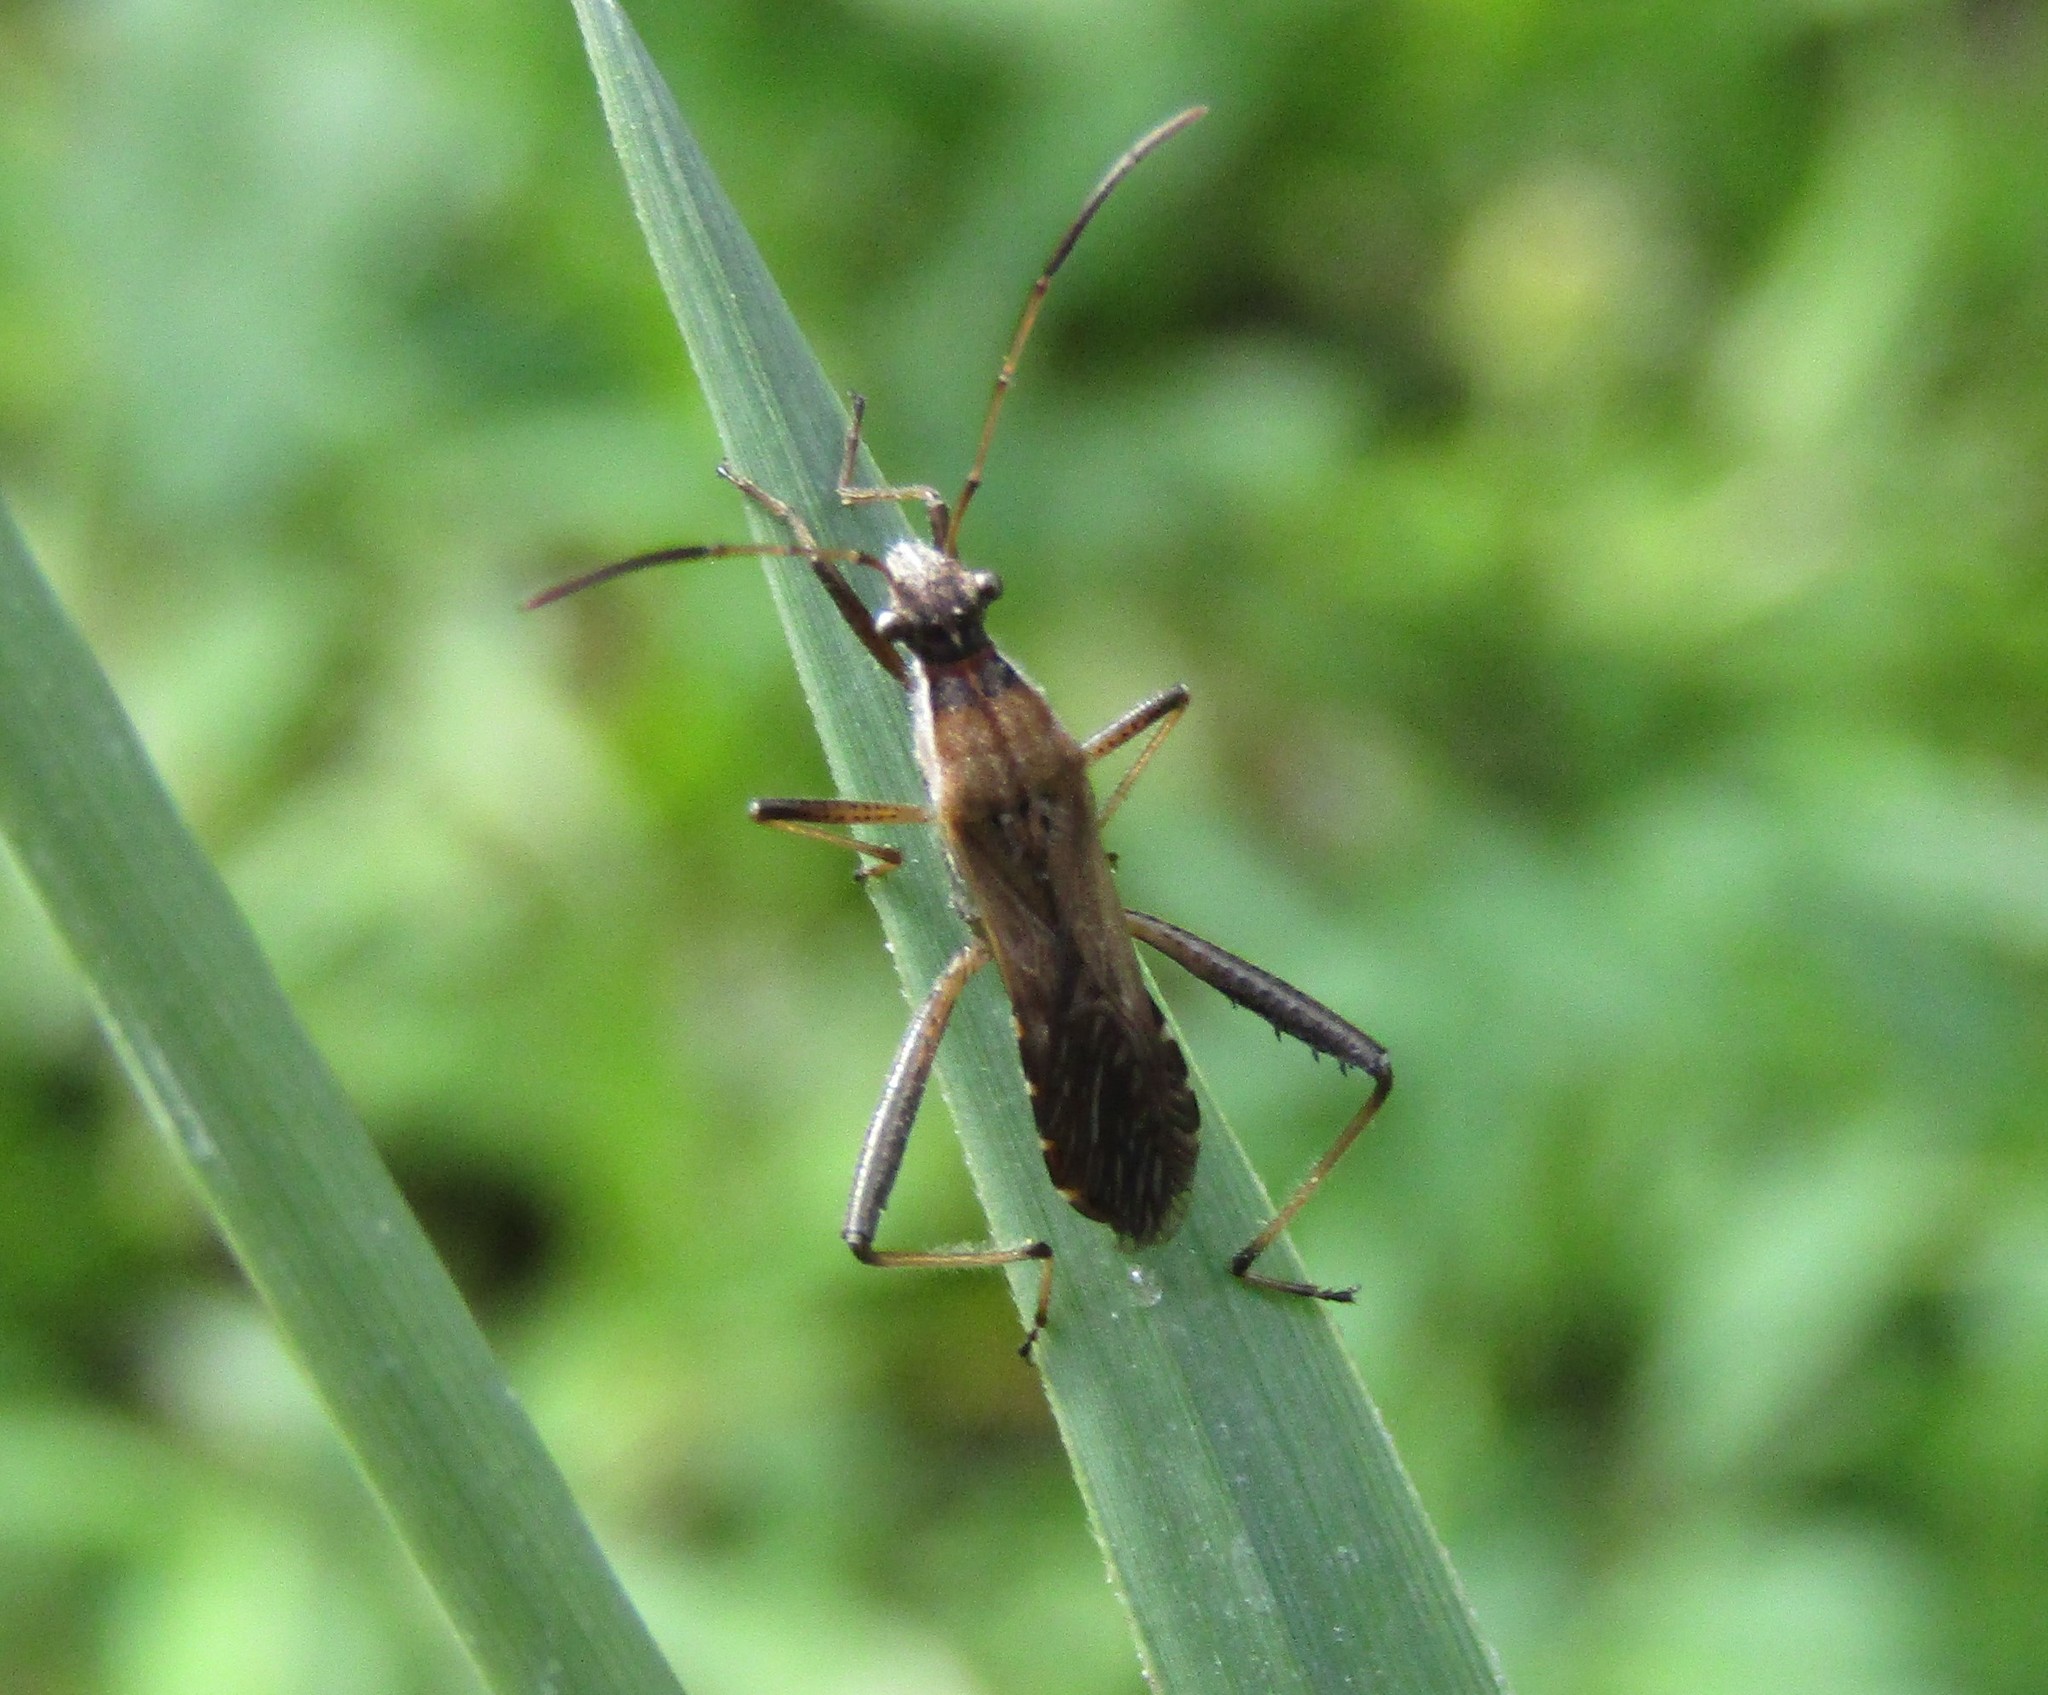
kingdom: Animalia
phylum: Arthropoda
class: Insecta
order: Hemiptera
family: Alydidae
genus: Alydus
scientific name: Alydus pilosulus
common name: Broad-headed bug
